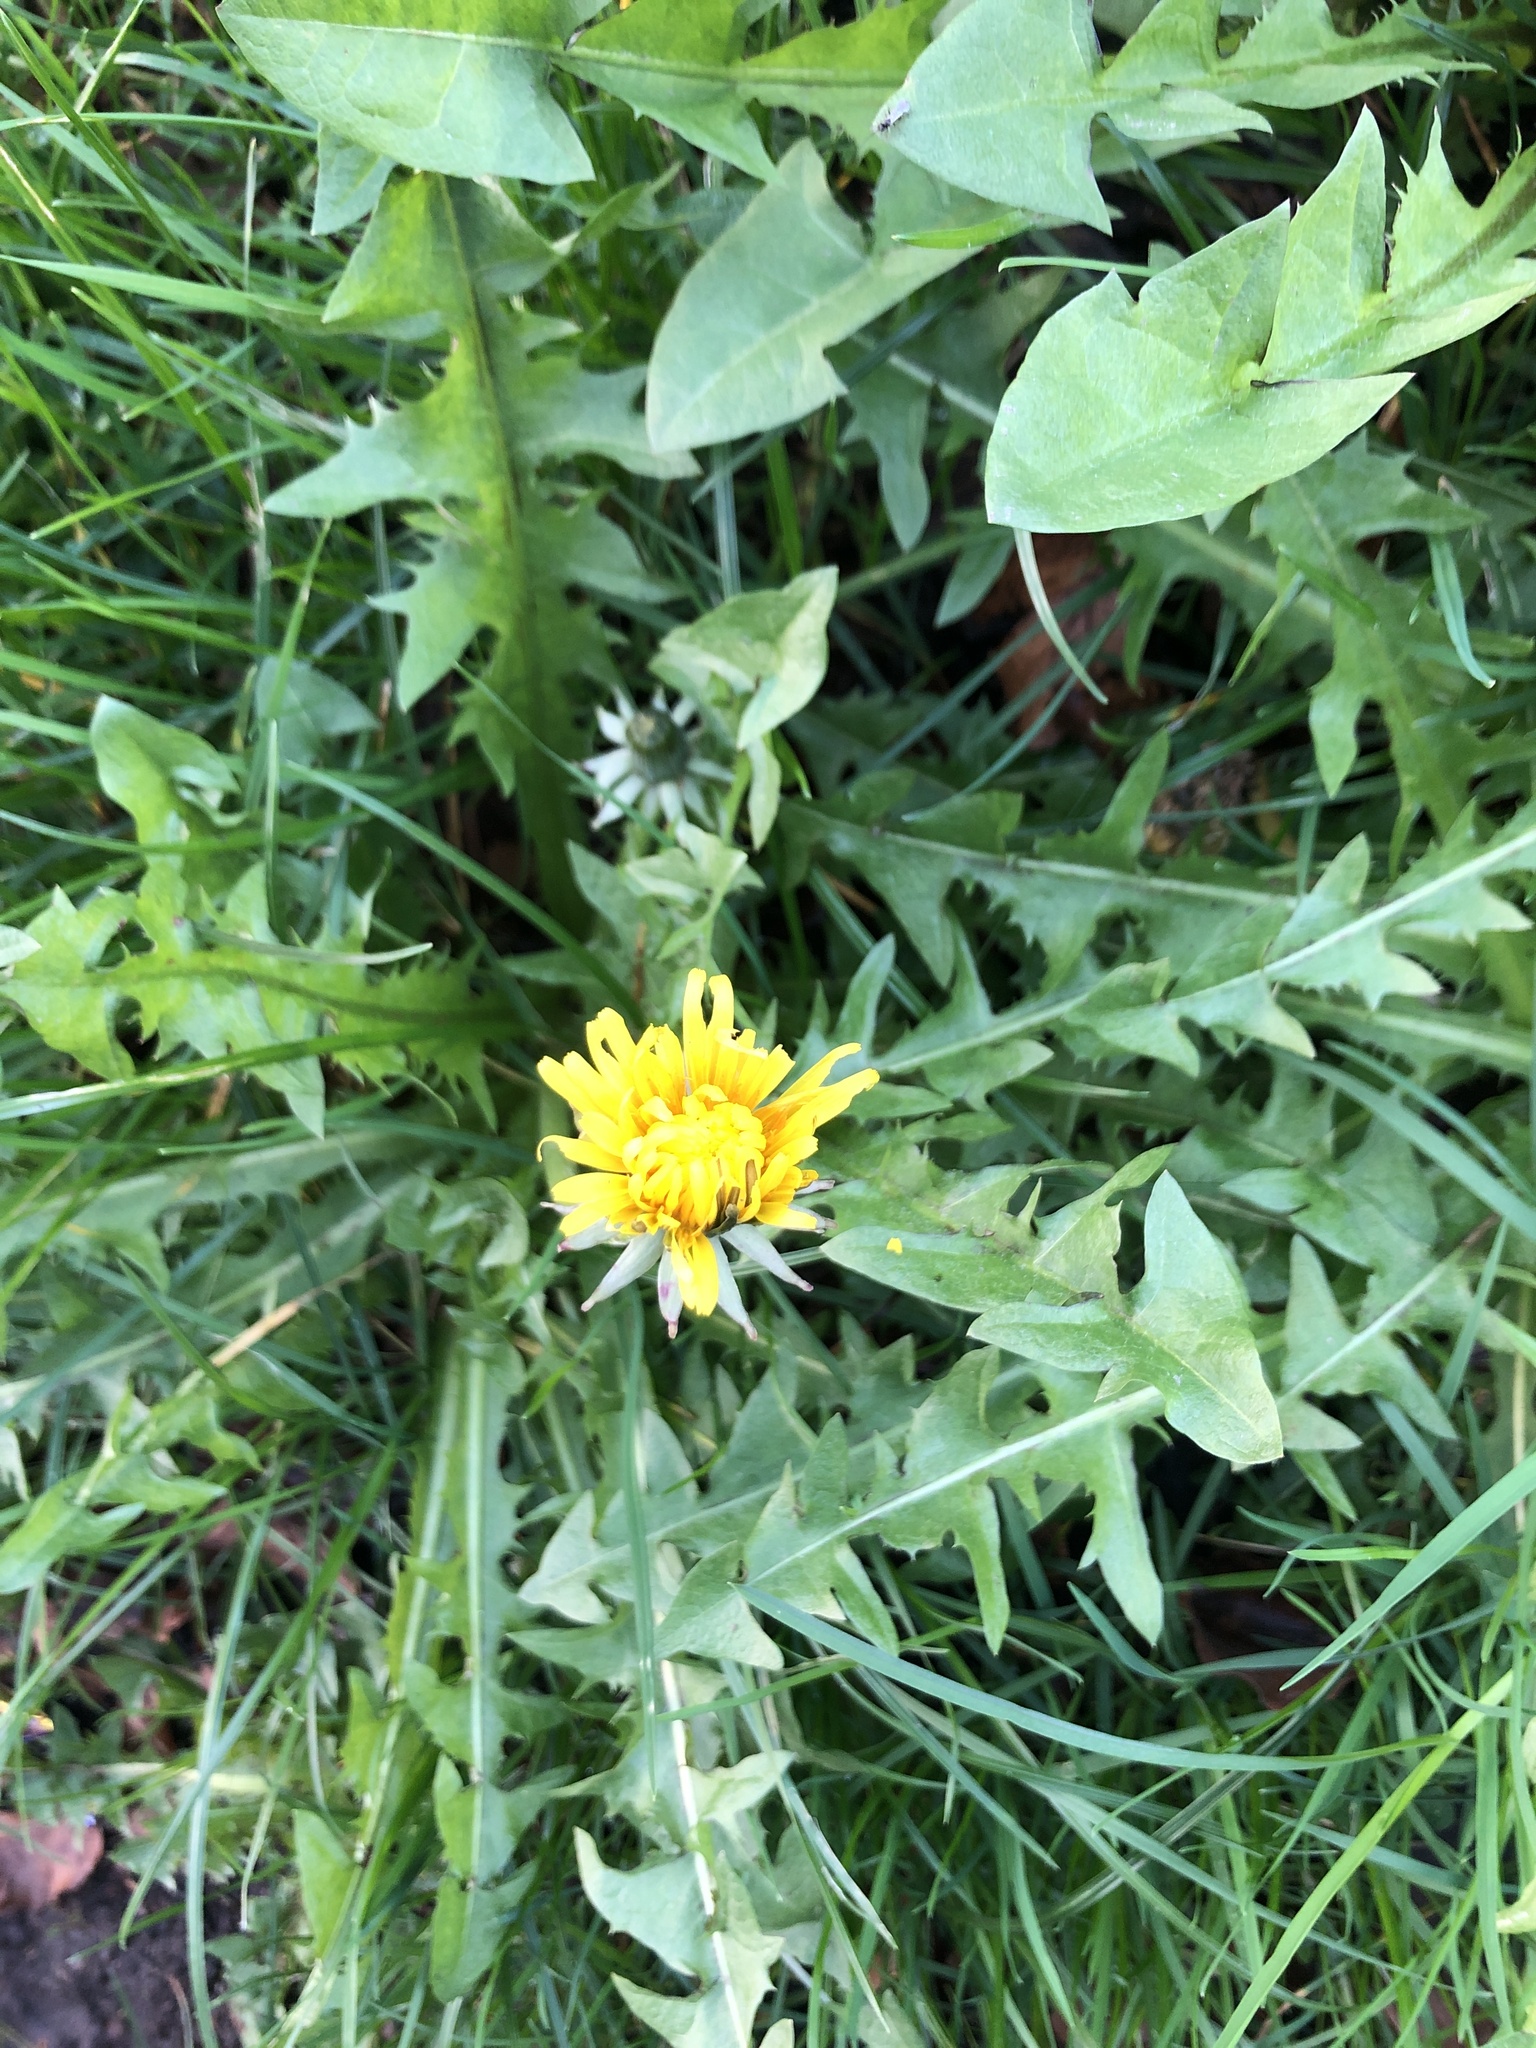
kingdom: Plantae
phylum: Tracheophyta
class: Magnoliopsida
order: Asterales
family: Asteraceae
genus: Taraxacum
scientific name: Taraxacum officinale
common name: Common dandelion
